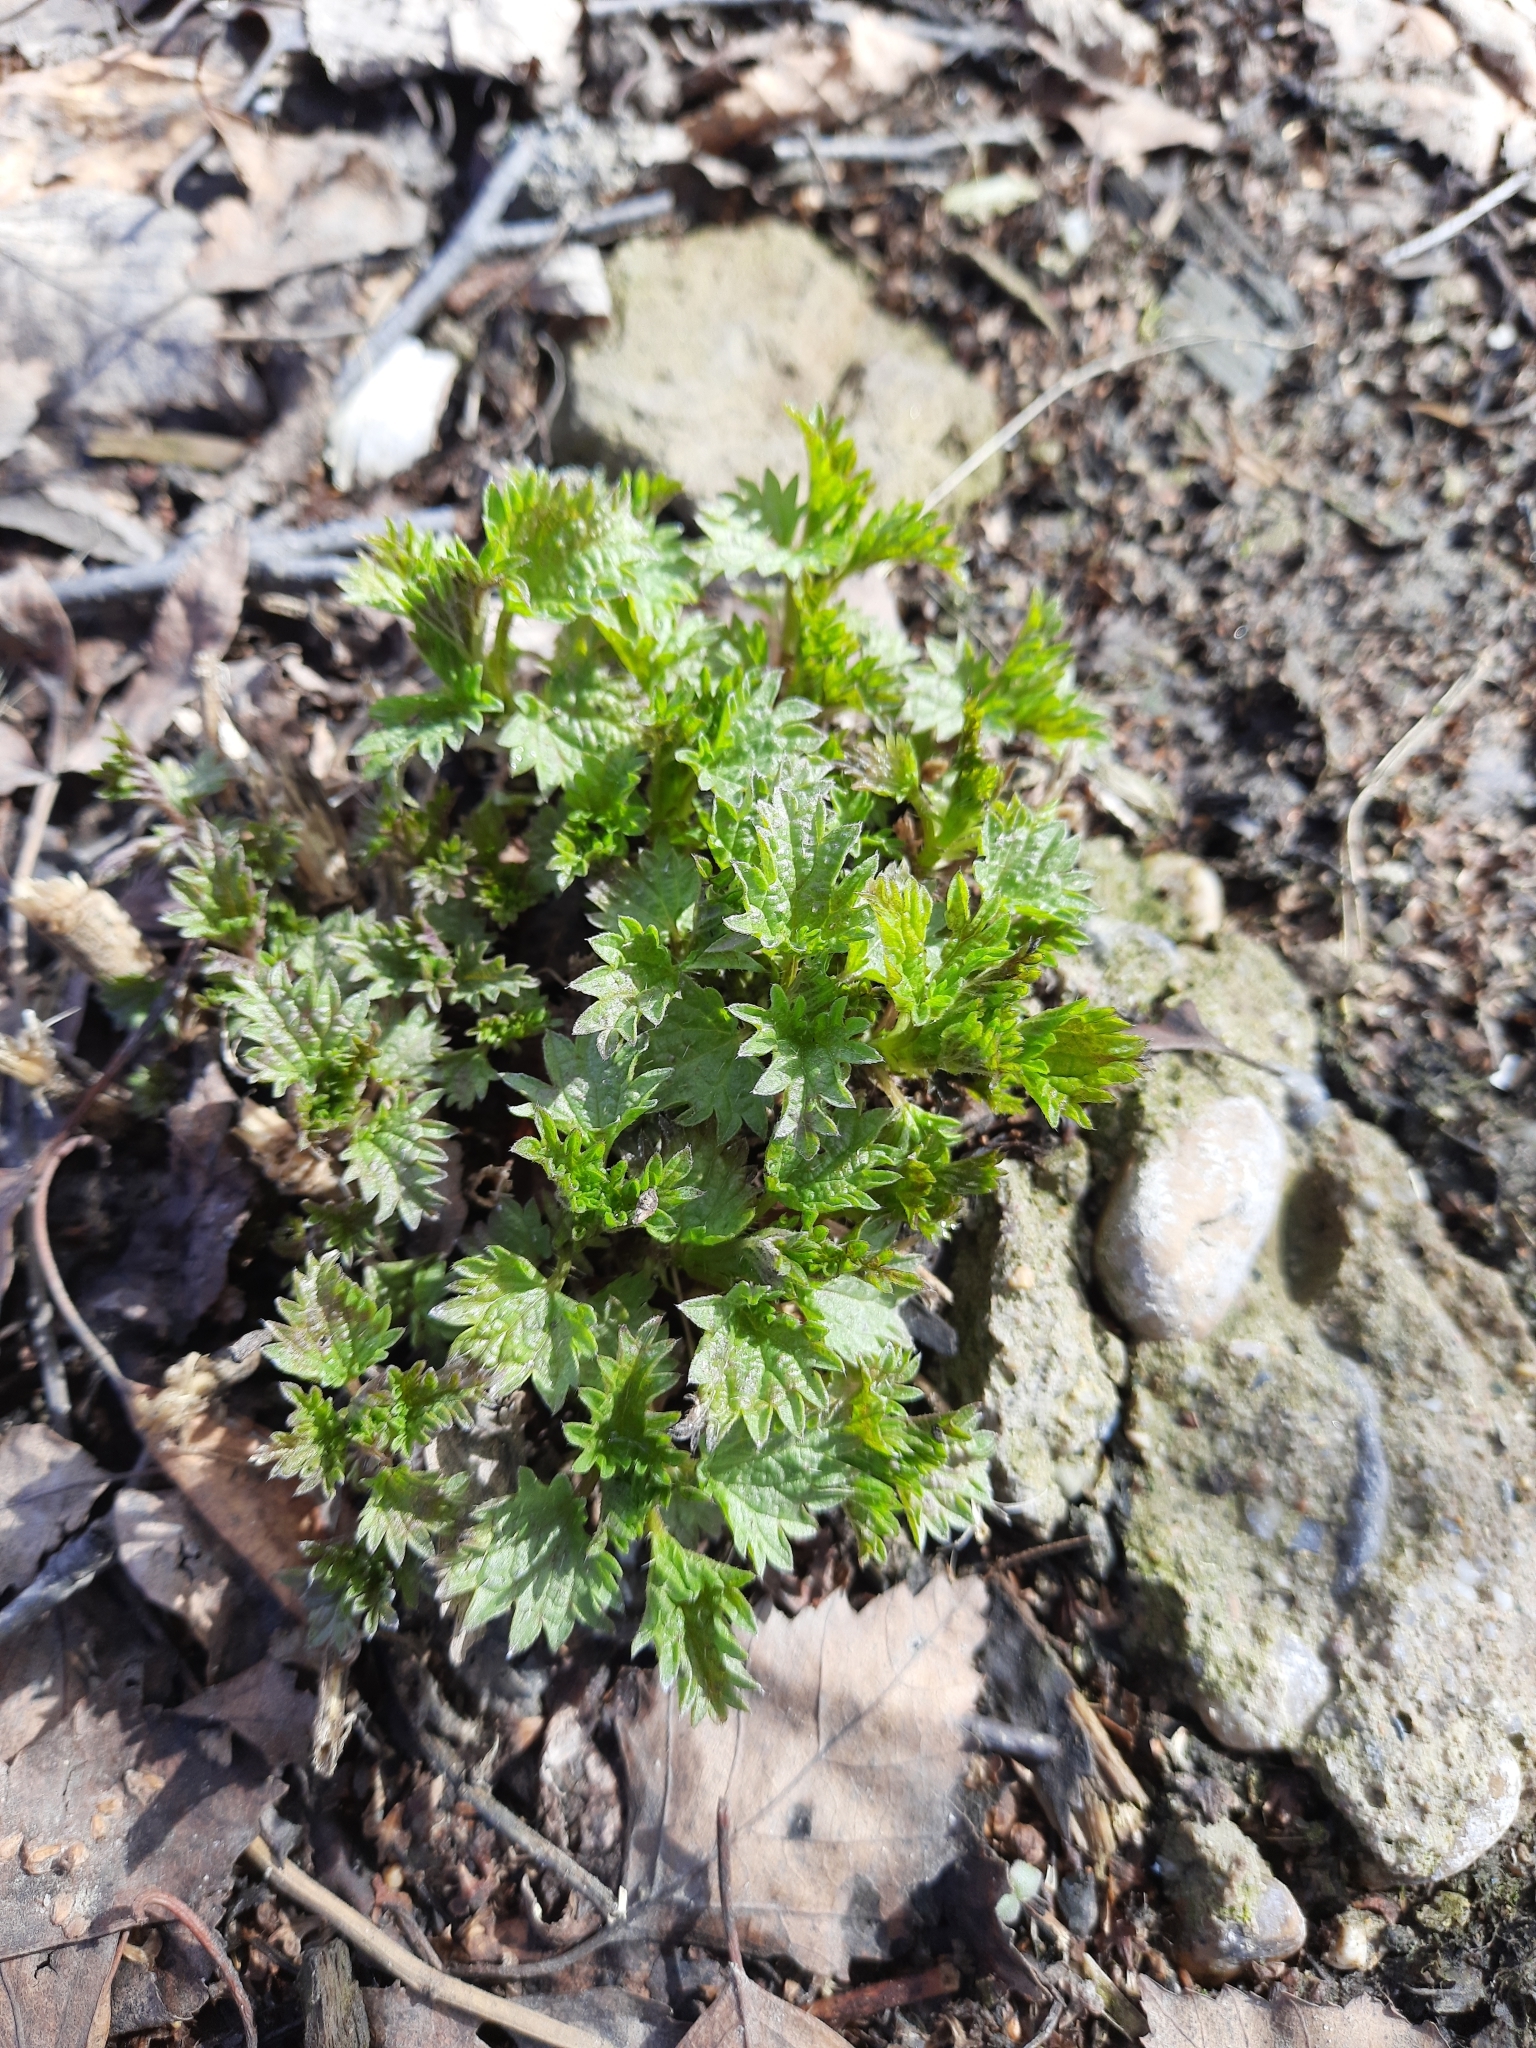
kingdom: Plantae
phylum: Tracheophyta
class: Magnoliopsida
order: Rosales
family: Urticaceae
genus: Urtica
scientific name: Urtica dioica
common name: Common nettle
